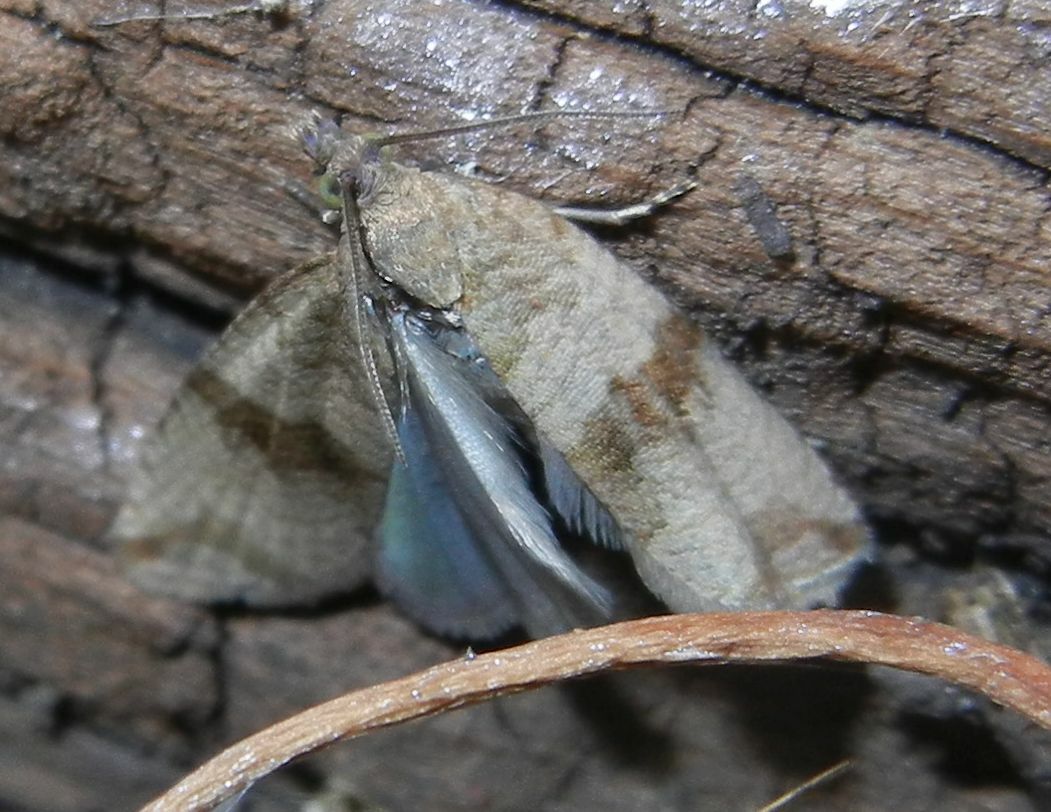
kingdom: Animalia
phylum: Arthropoda
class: Insecta
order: Lepidoptera
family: Tortricidae
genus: Celypha
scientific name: Celypha striana
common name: Barred marble
